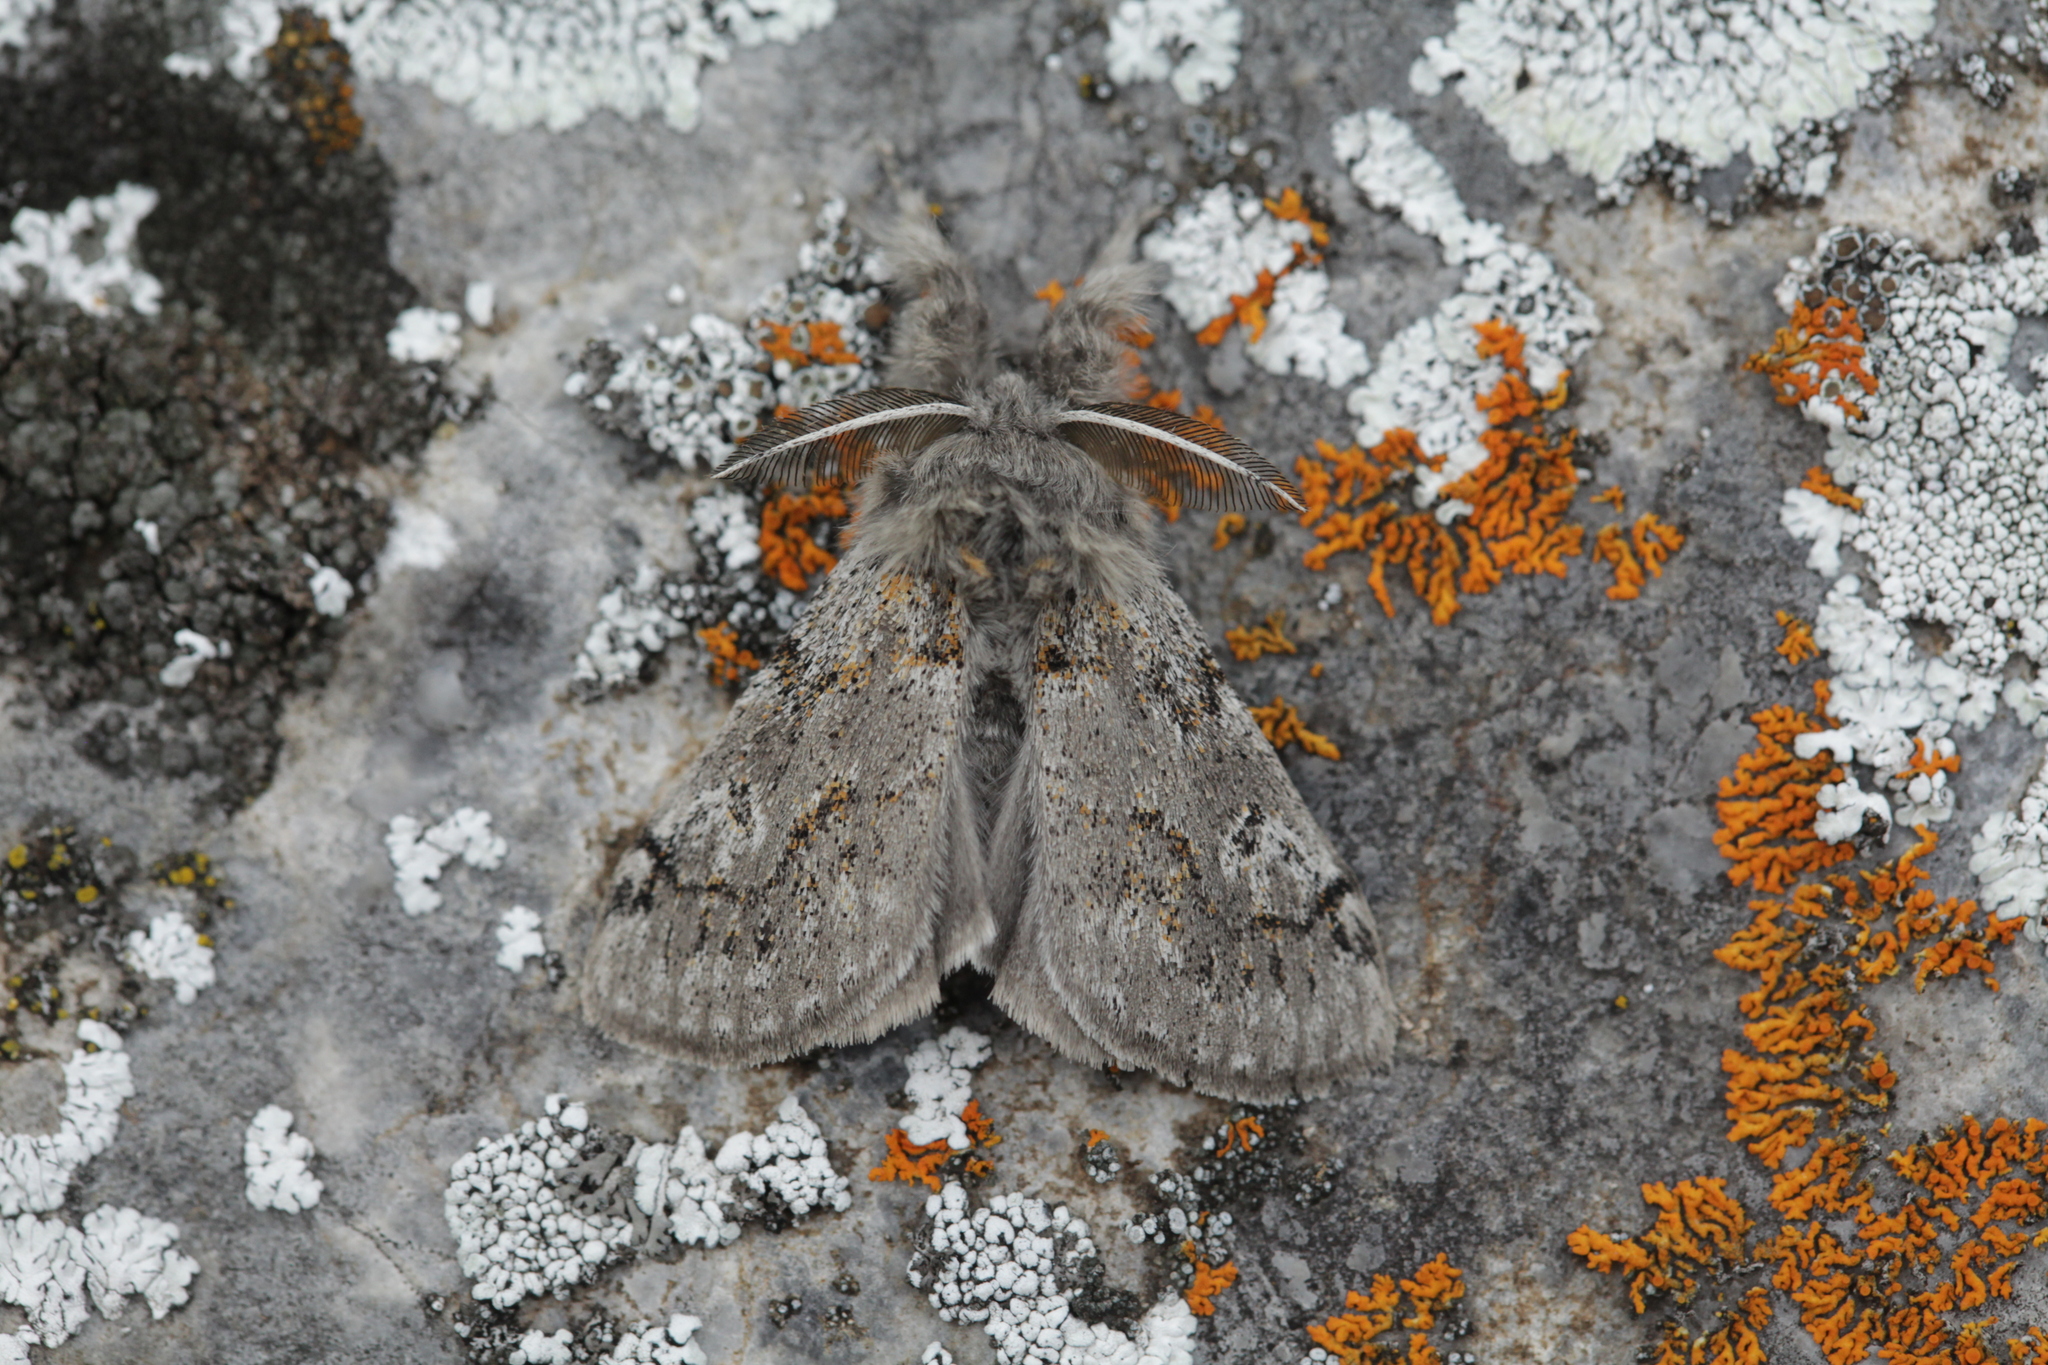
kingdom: Animalia
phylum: Arthropoda
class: Insecta
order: Lepidoptera
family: Erebidae
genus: Calliteara
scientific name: Calliteara Dicallomera fascelina
